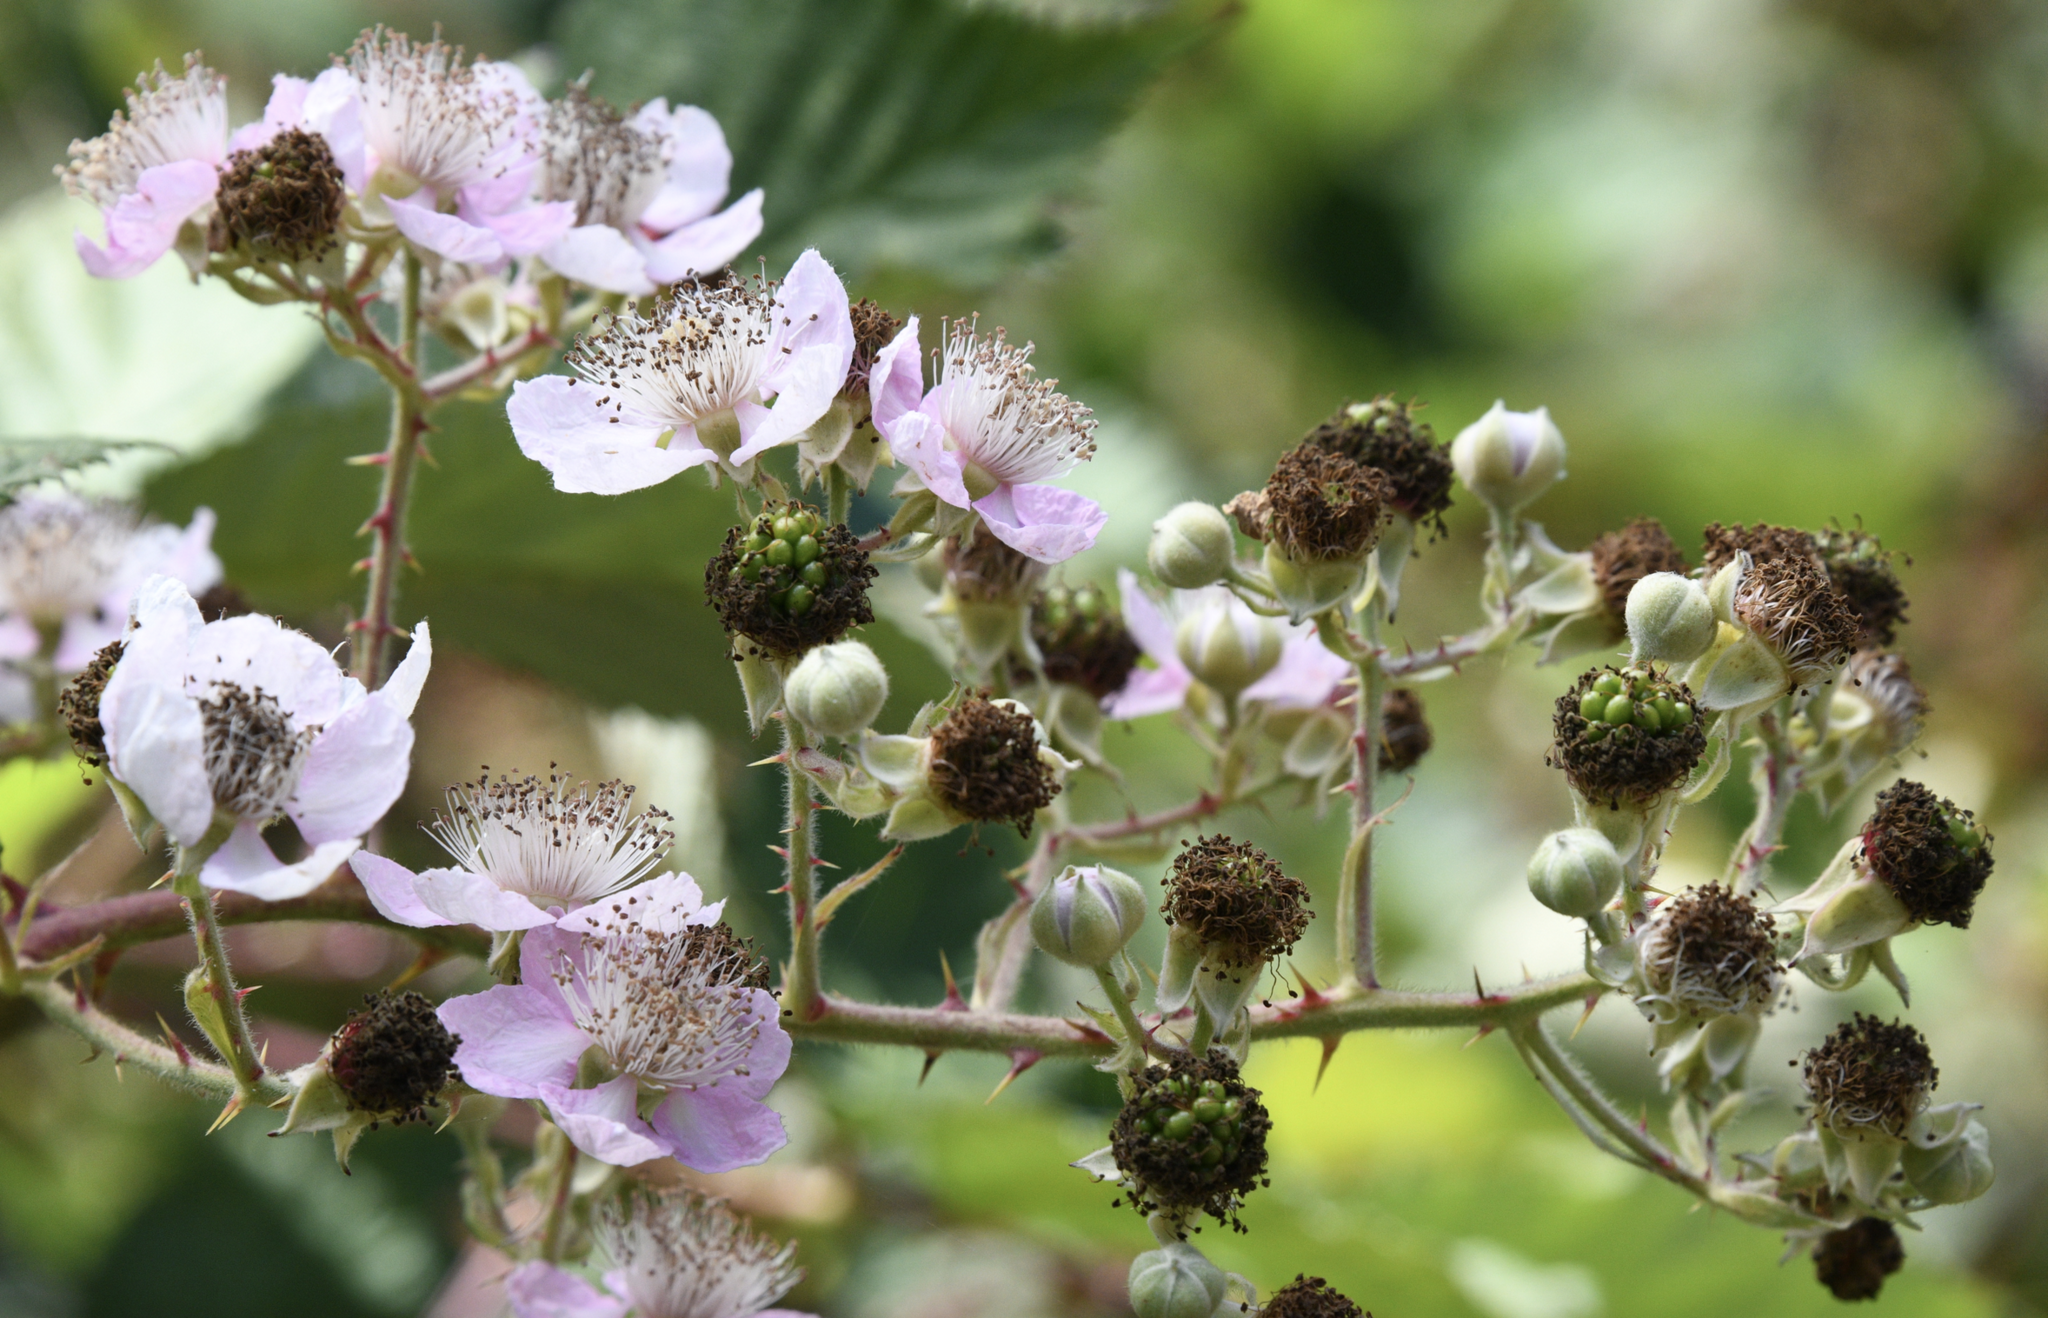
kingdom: Plantae
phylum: Tracheophyta
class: Magnoliopsida
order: Rosales
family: Rosaceae
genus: Rubus
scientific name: Rubus armeniacus
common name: Himalayan blackberry
